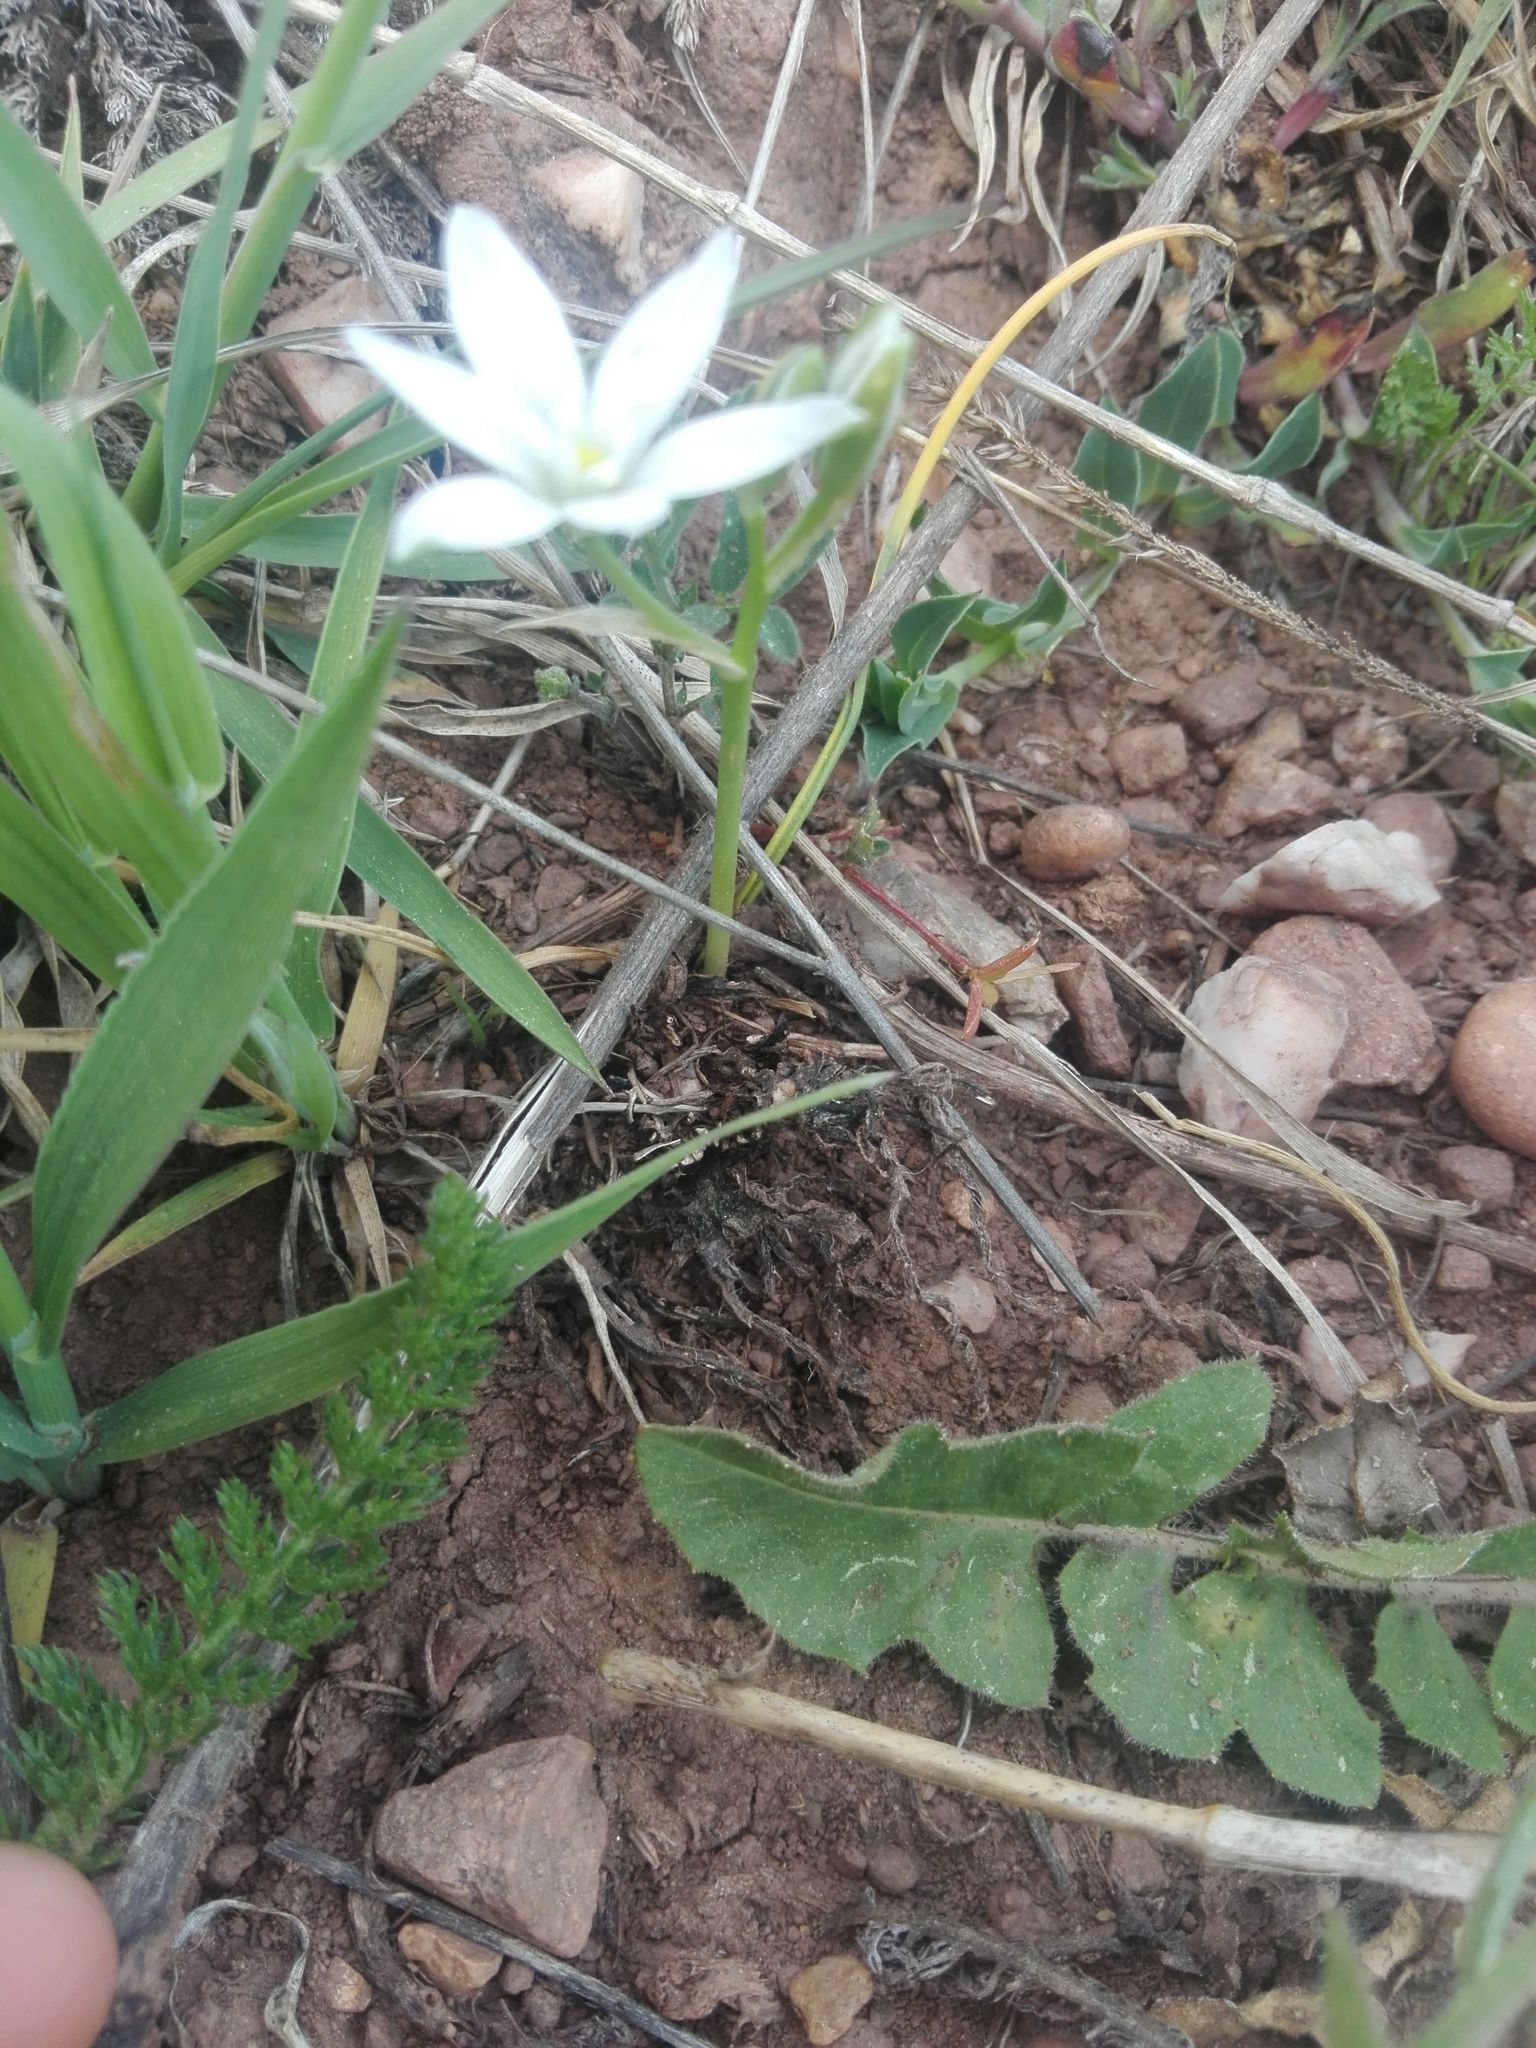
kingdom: Plantae
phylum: Tracheophyta
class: Liliopsida
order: Asparagales
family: Asparagaceae
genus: Ornithogalum
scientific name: Ornithogalum umbellatum
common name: Garden star-of-bethlehem
